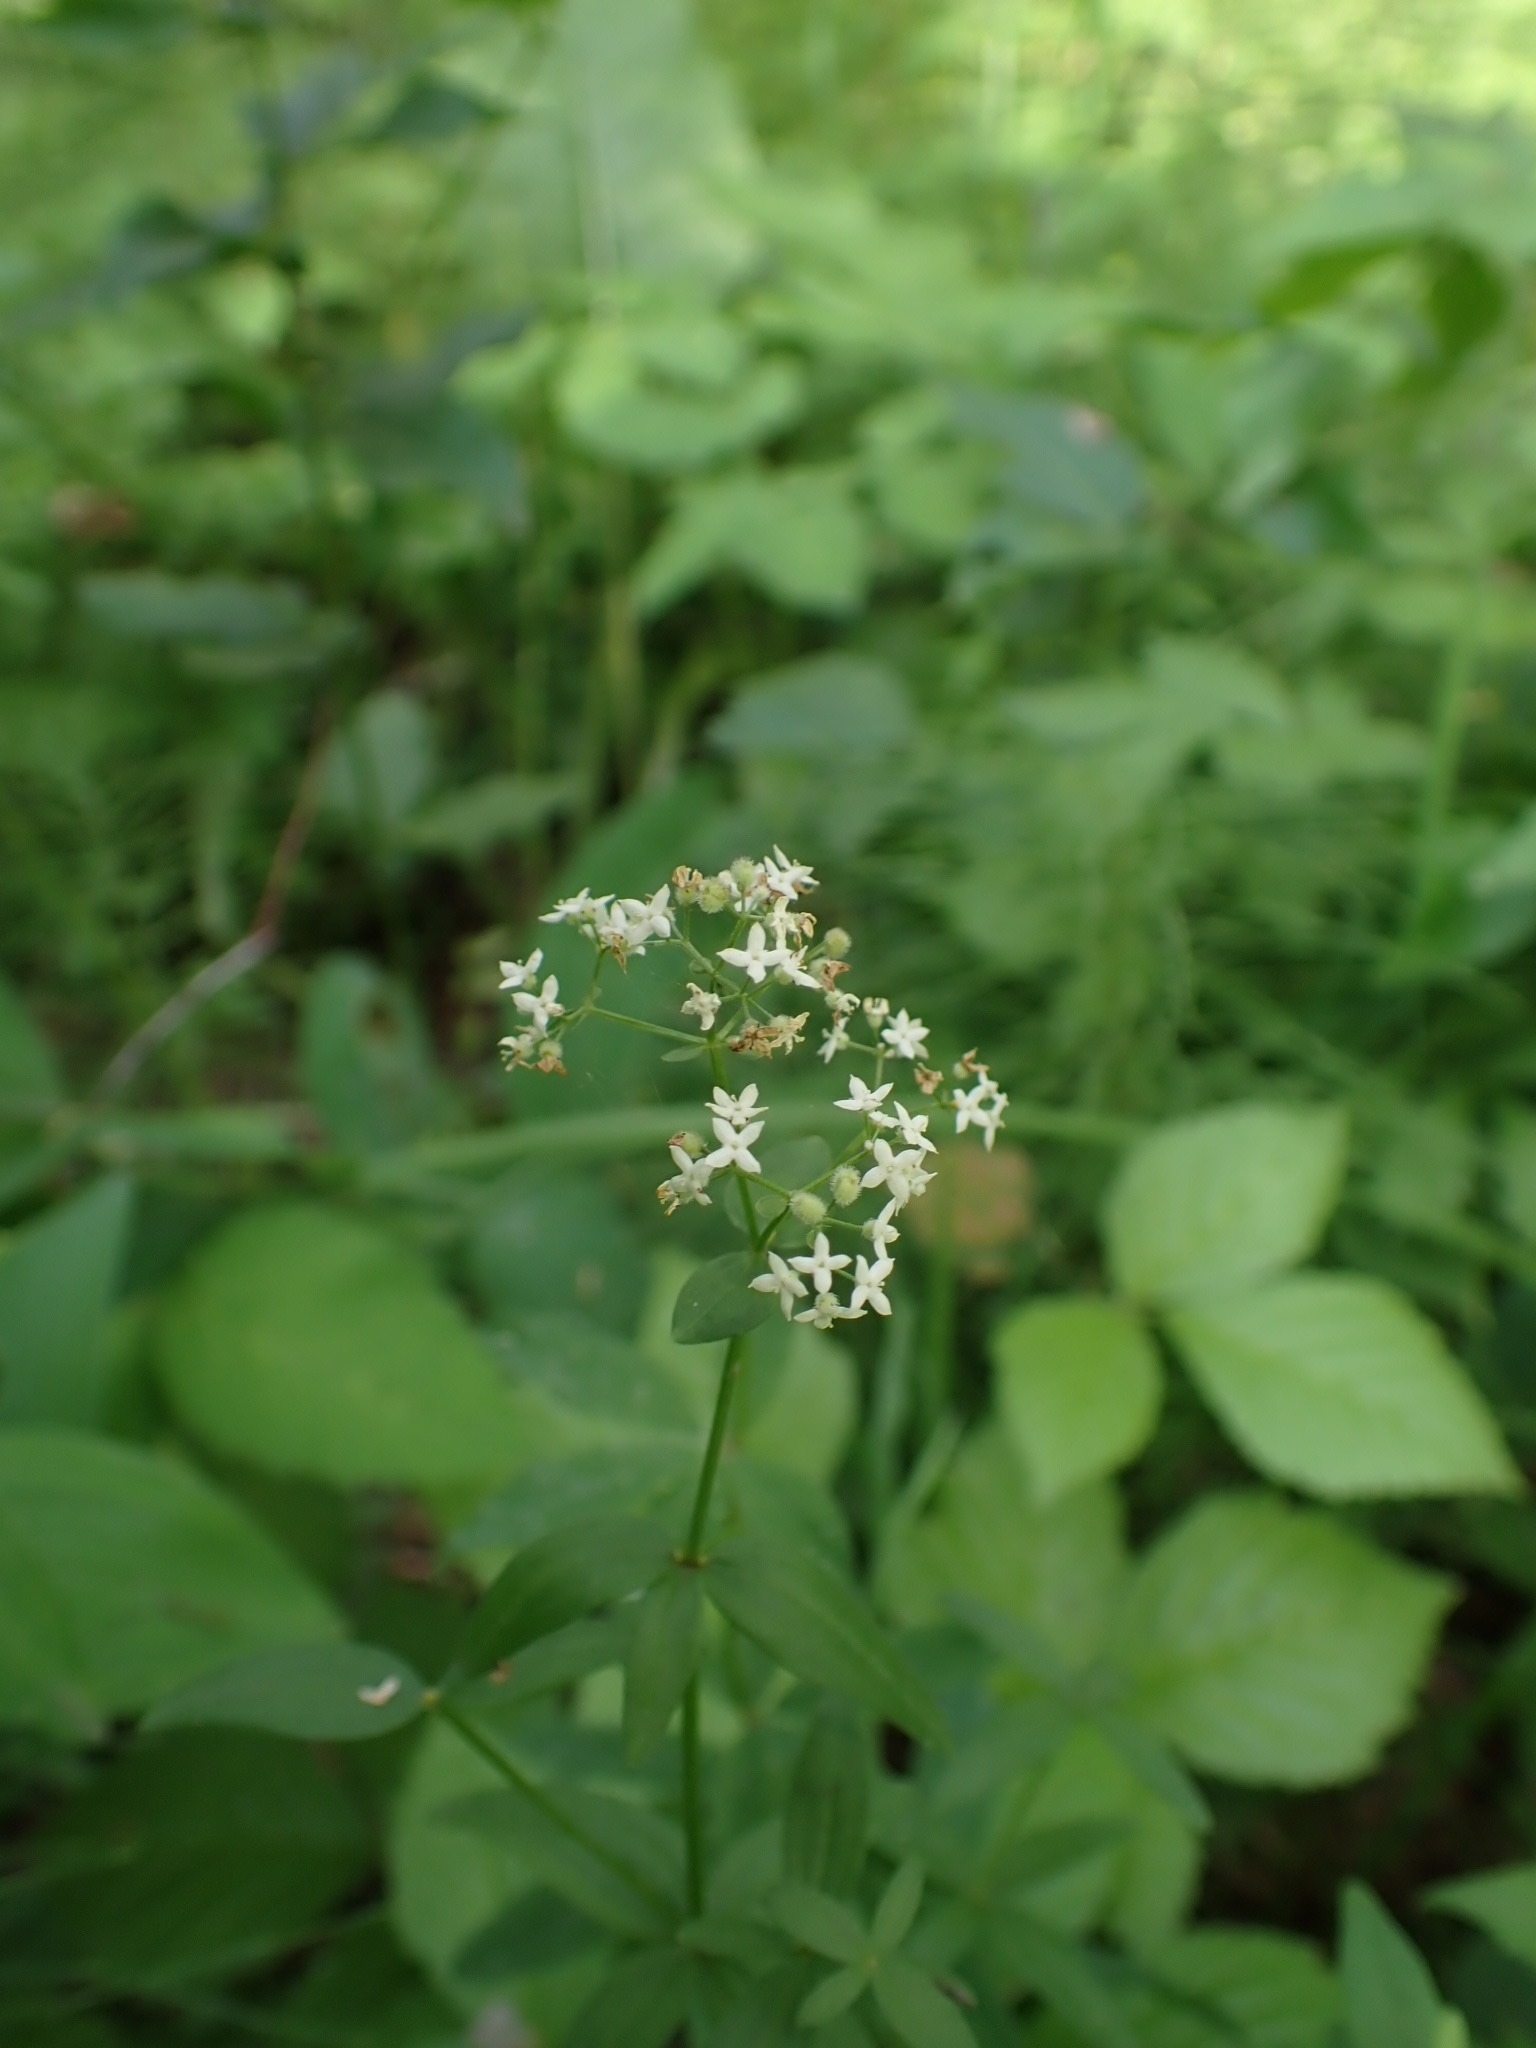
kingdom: Plantae
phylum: Tracheophyta
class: Magnoliopsida
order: Gentianales
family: Rubiaceae
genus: Galium
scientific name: Galium boreale
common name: Northern bedstraw
